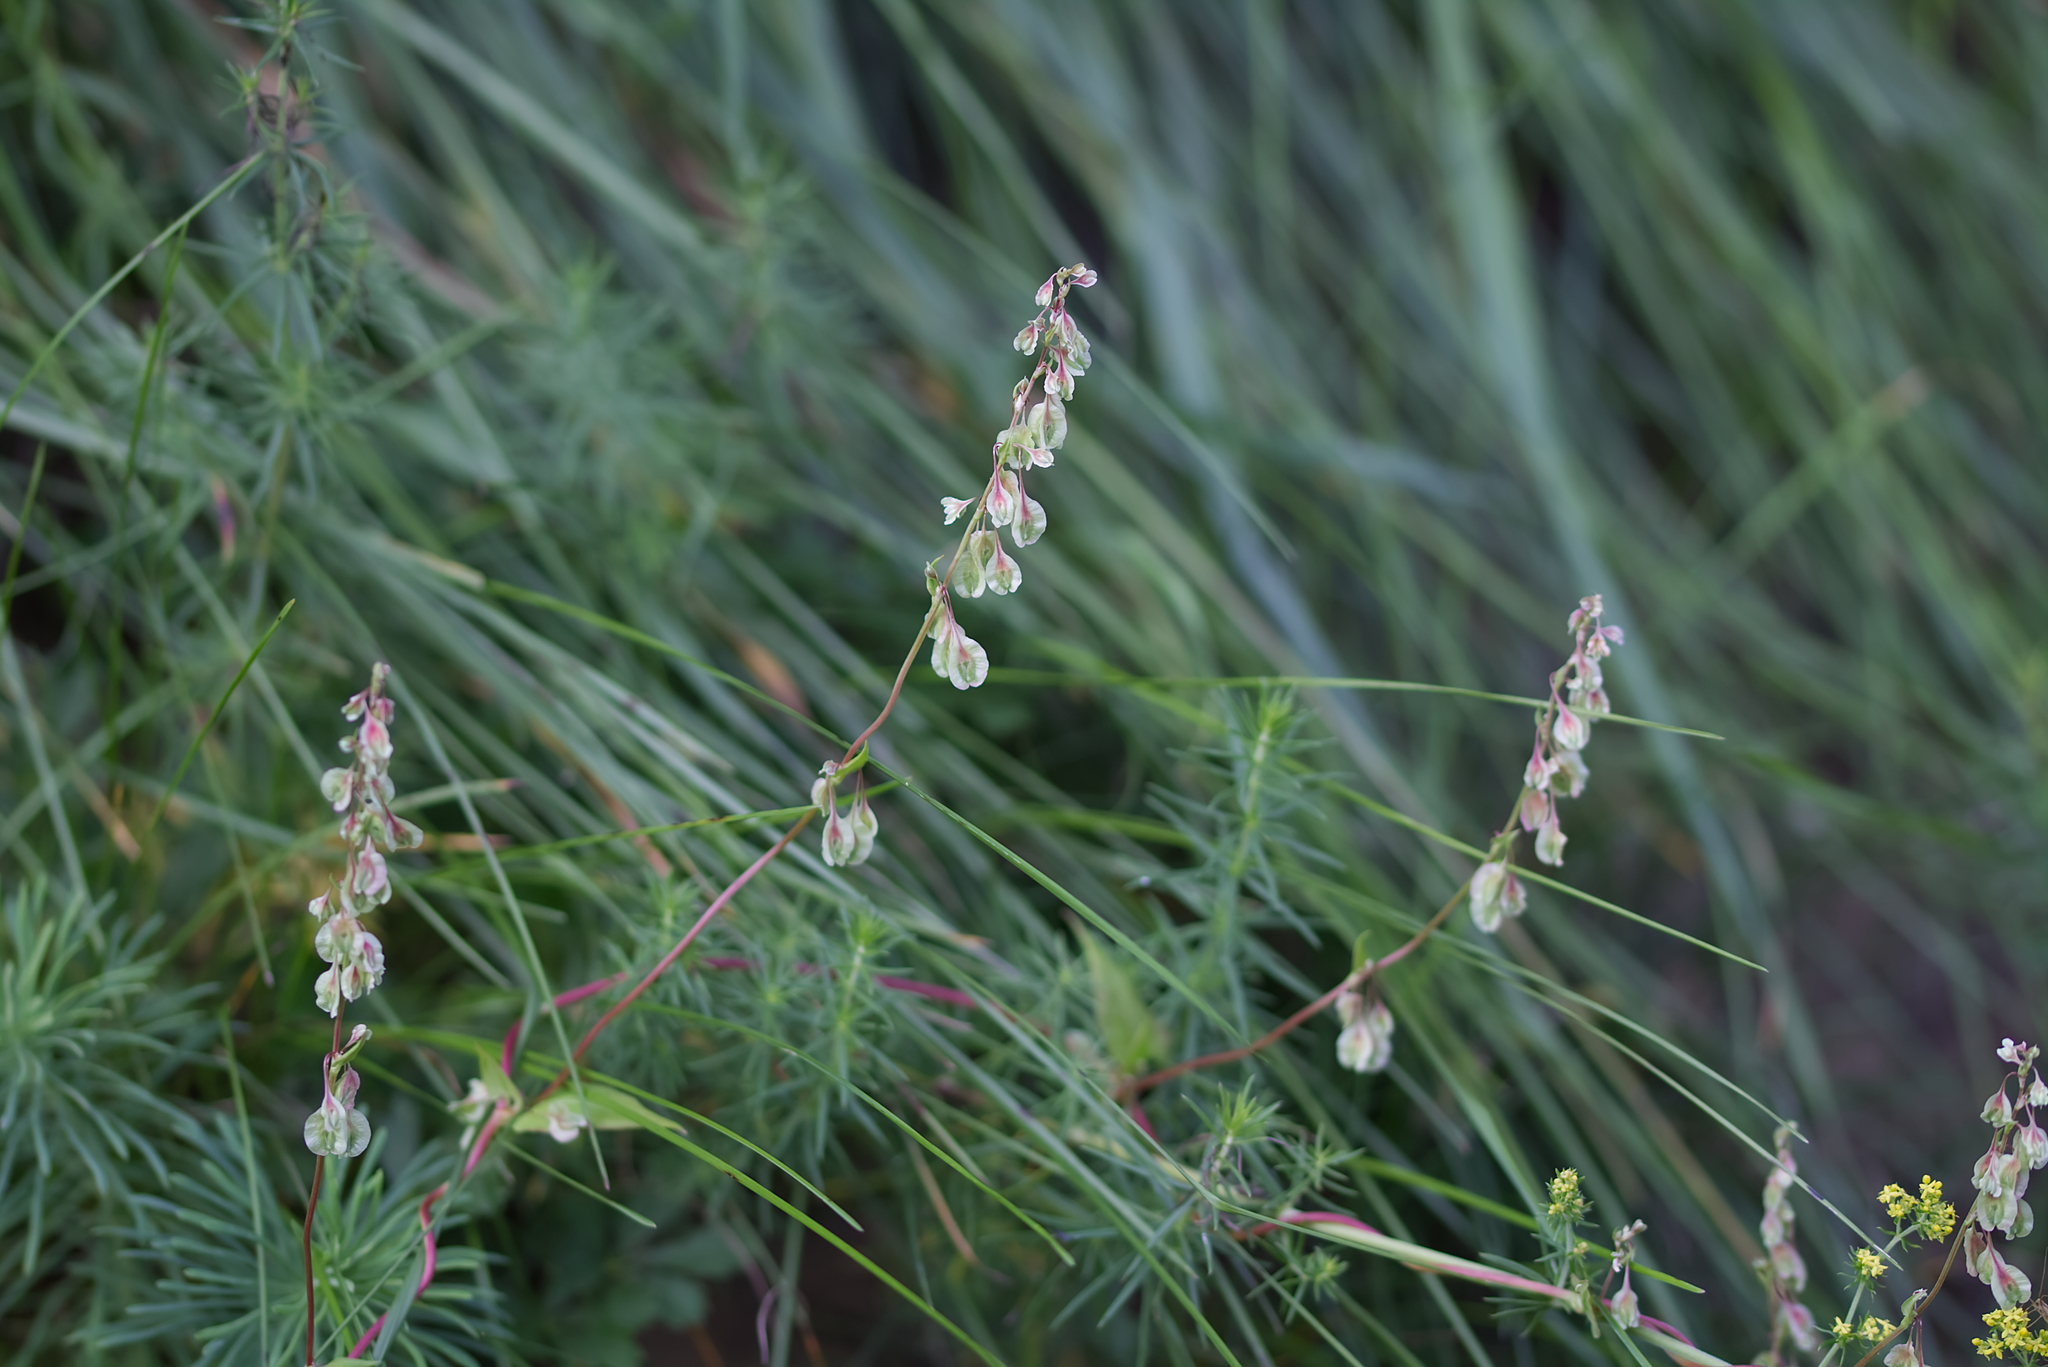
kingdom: Plantae
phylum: Tracheophyta
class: Magnoliopsida
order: Caryophyllales
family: Polygonaceae
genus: Fallopia
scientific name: Fallopia dumetorum
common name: Copse-bindweed
